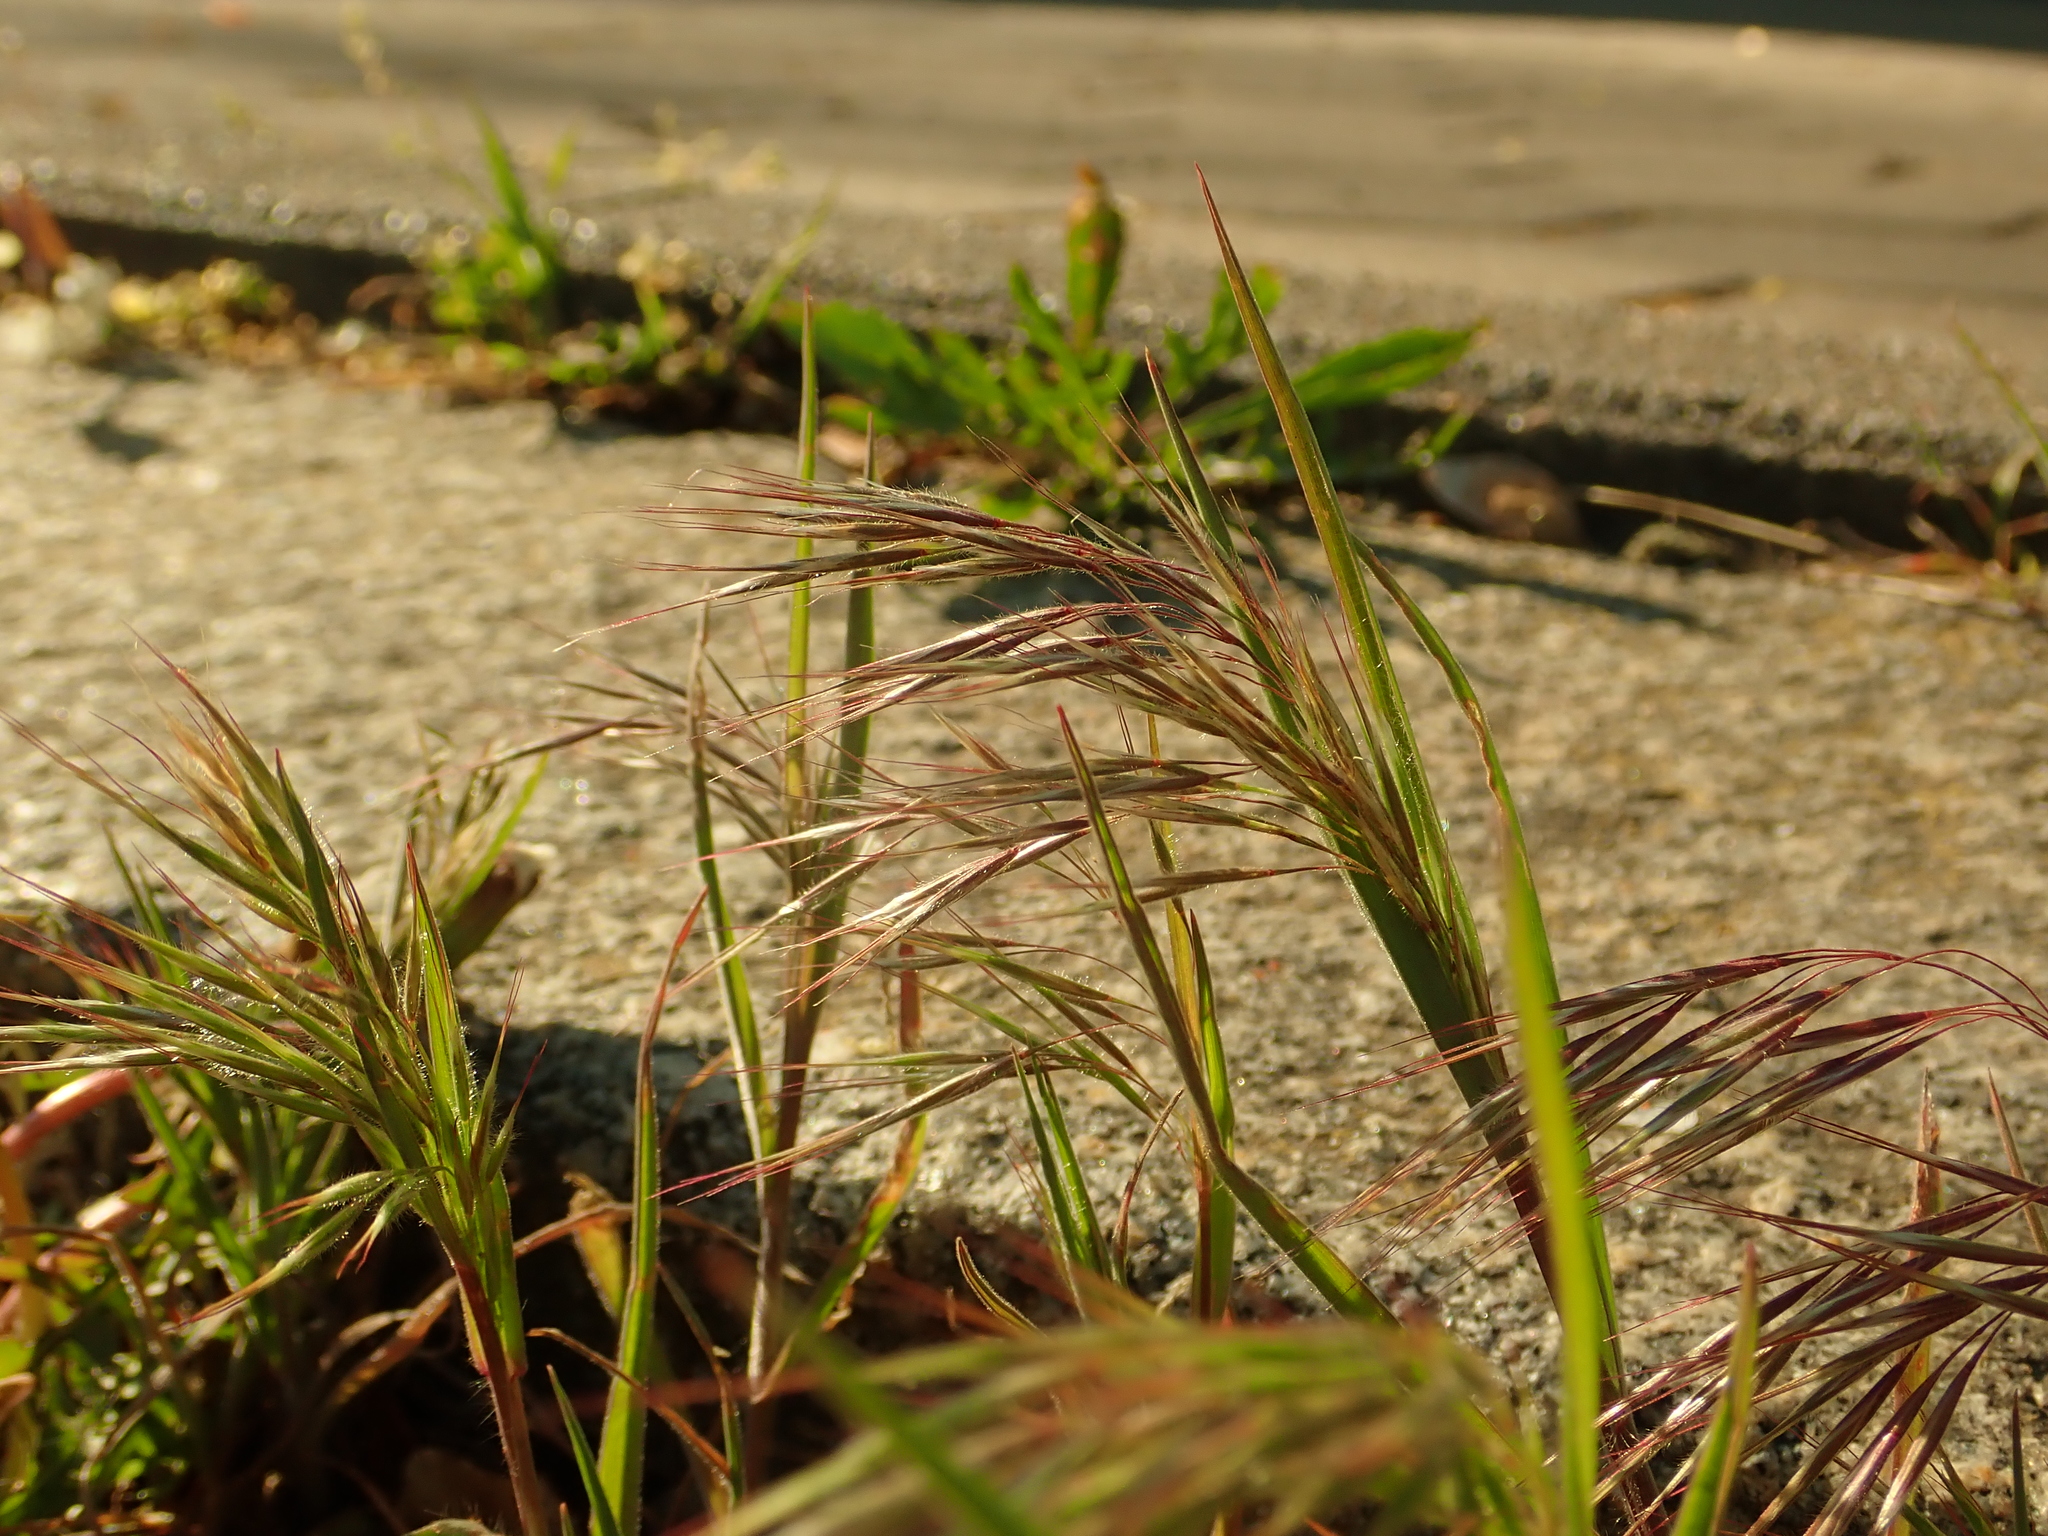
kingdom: Plantae
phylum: Tracheophyta
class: Liliopsida
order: Poales
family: Poaceae
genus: Bromus
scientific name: Bromus sterilis
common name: Poverty brome
